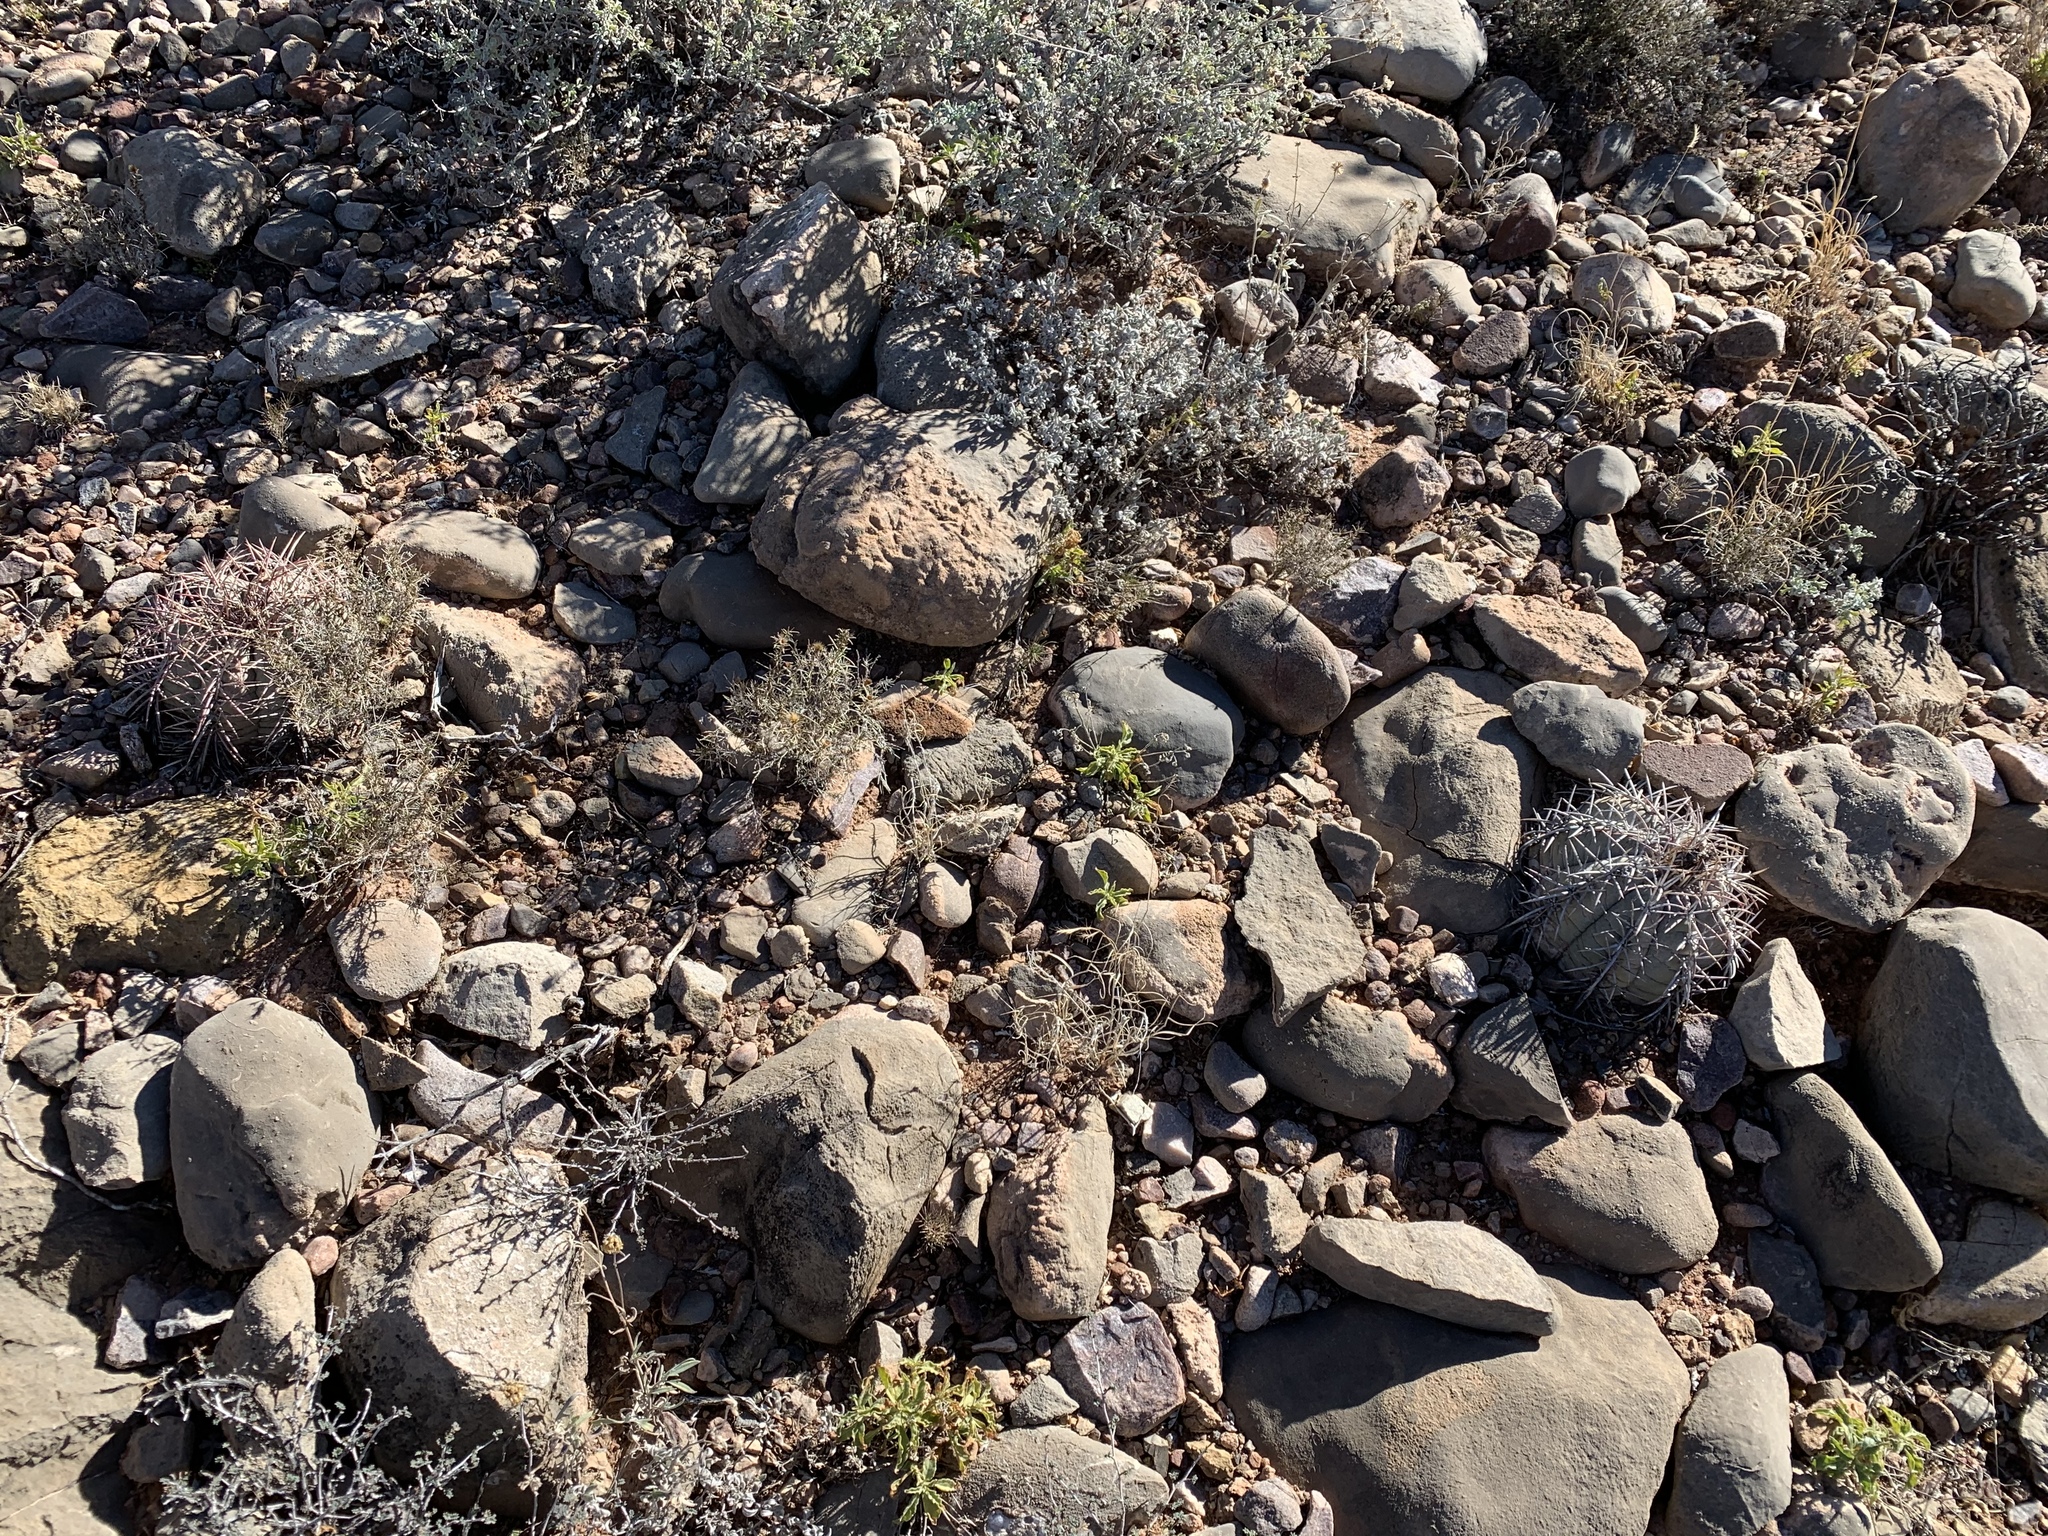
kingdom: Plantae
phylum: Tracheophyta
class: Magnoliopsida
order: Caryophyllales
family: Cactaceae
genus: Echinocactus
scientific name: Echinocactus horizonthalonius
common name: Devilshead
